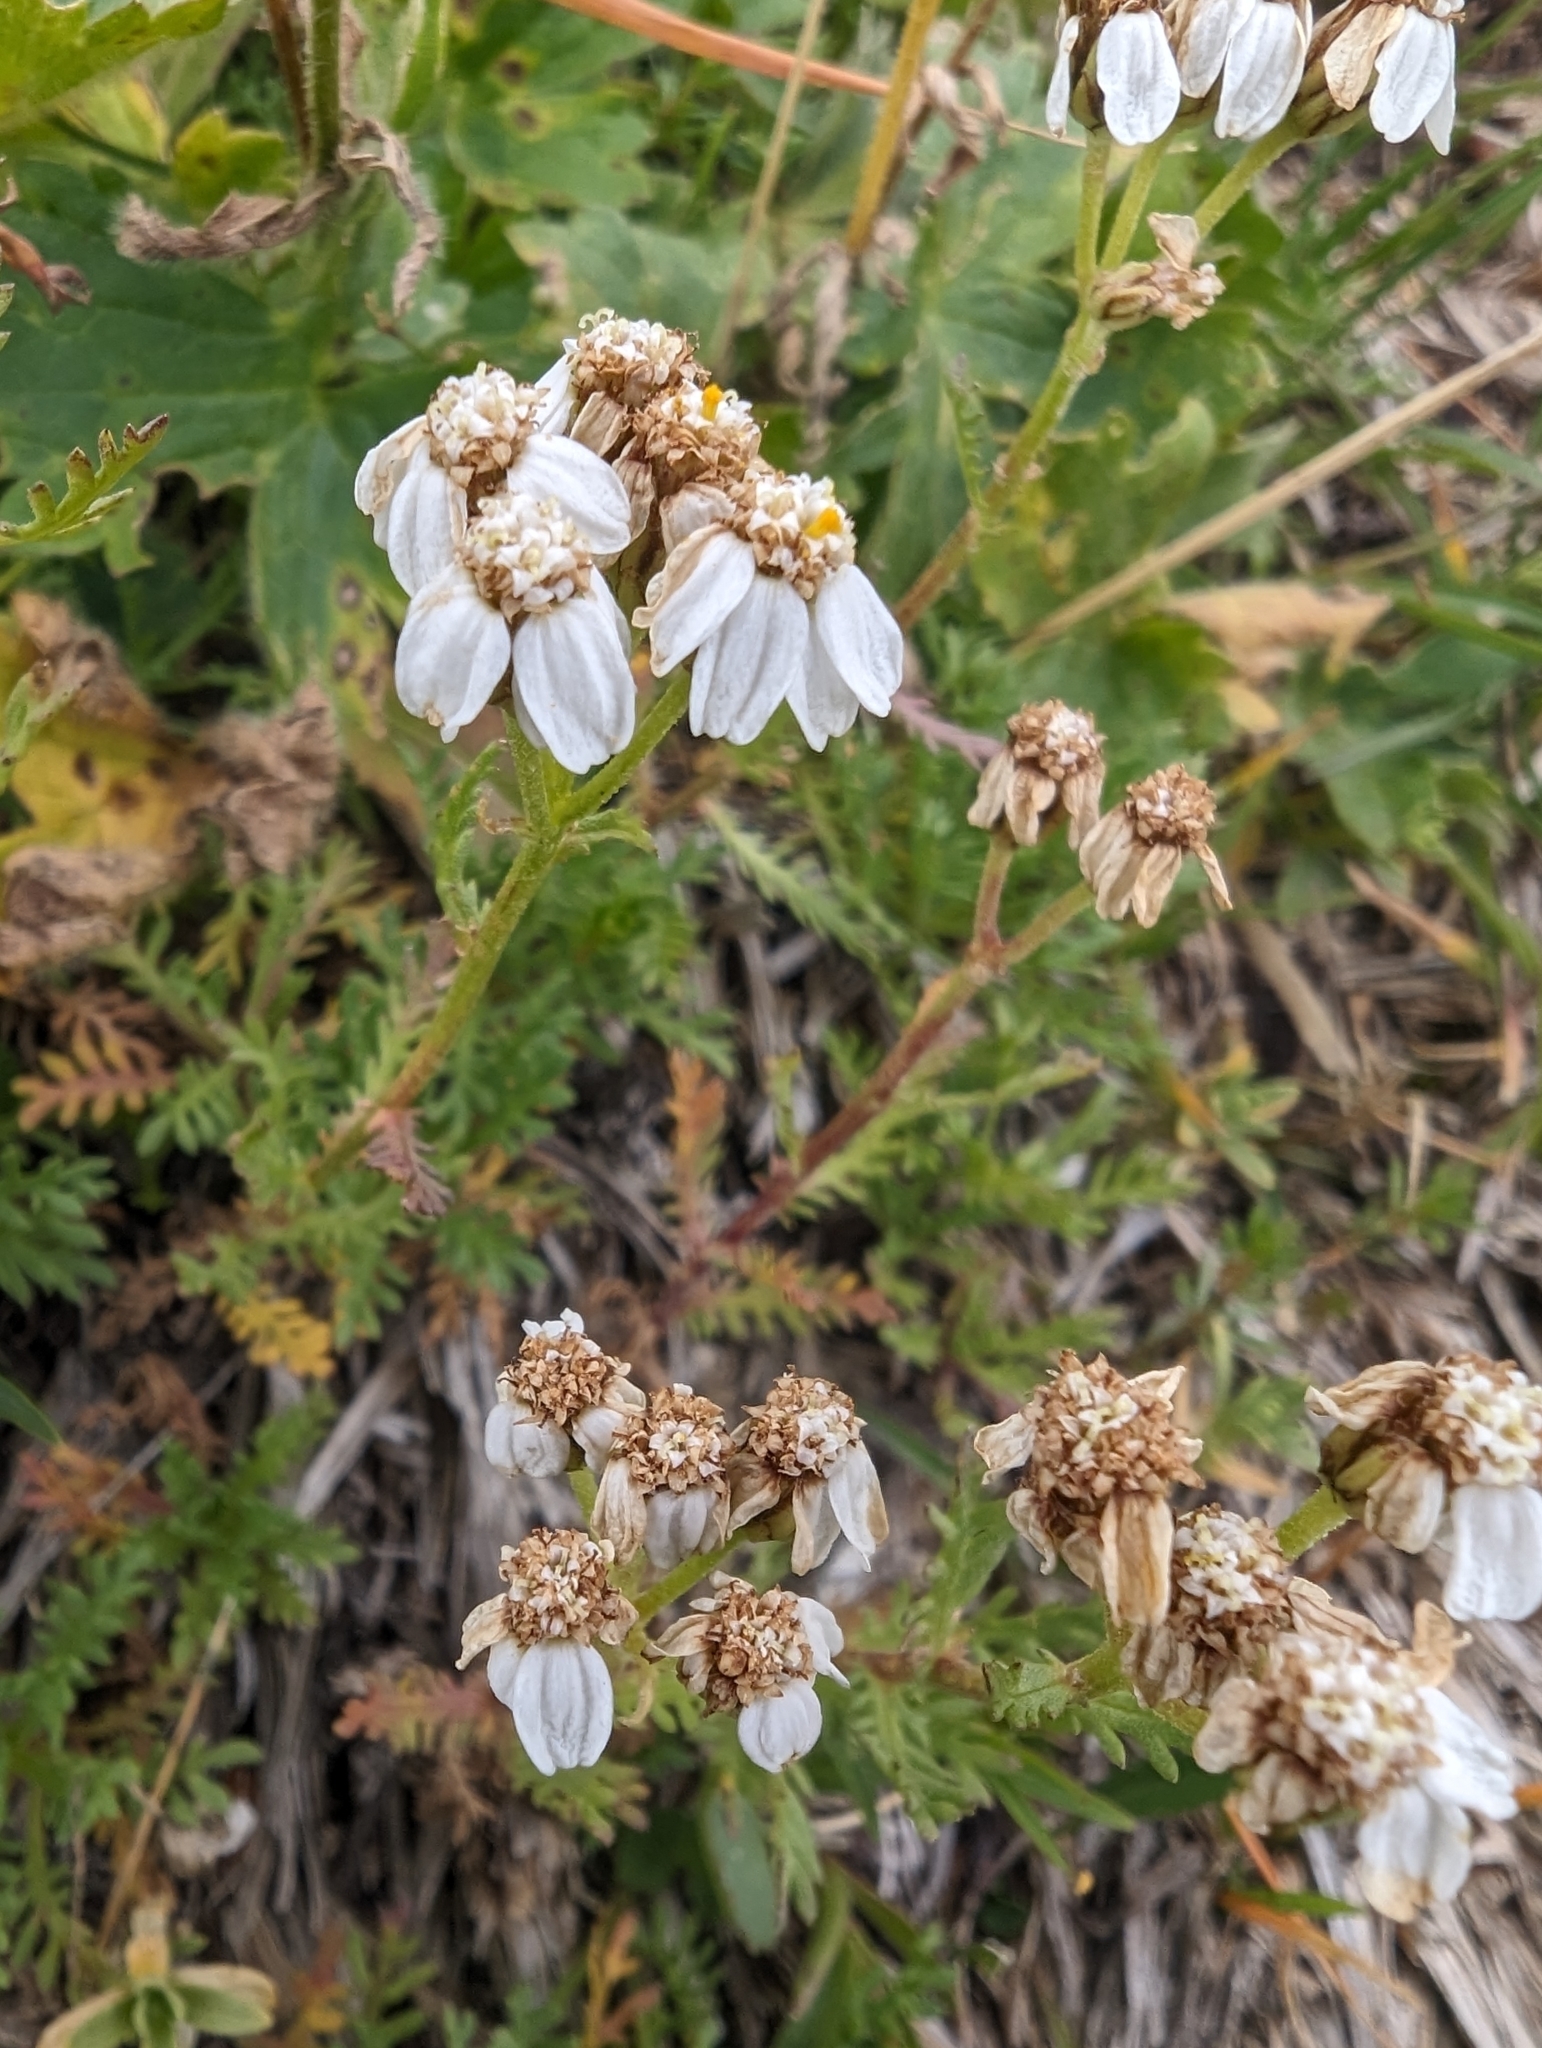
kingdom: Plantae
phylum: Tracheophyta
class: Magnoliopsida
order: Asterales
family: Asteraceae
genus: Achillea
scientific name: Achillea erba-rotta
